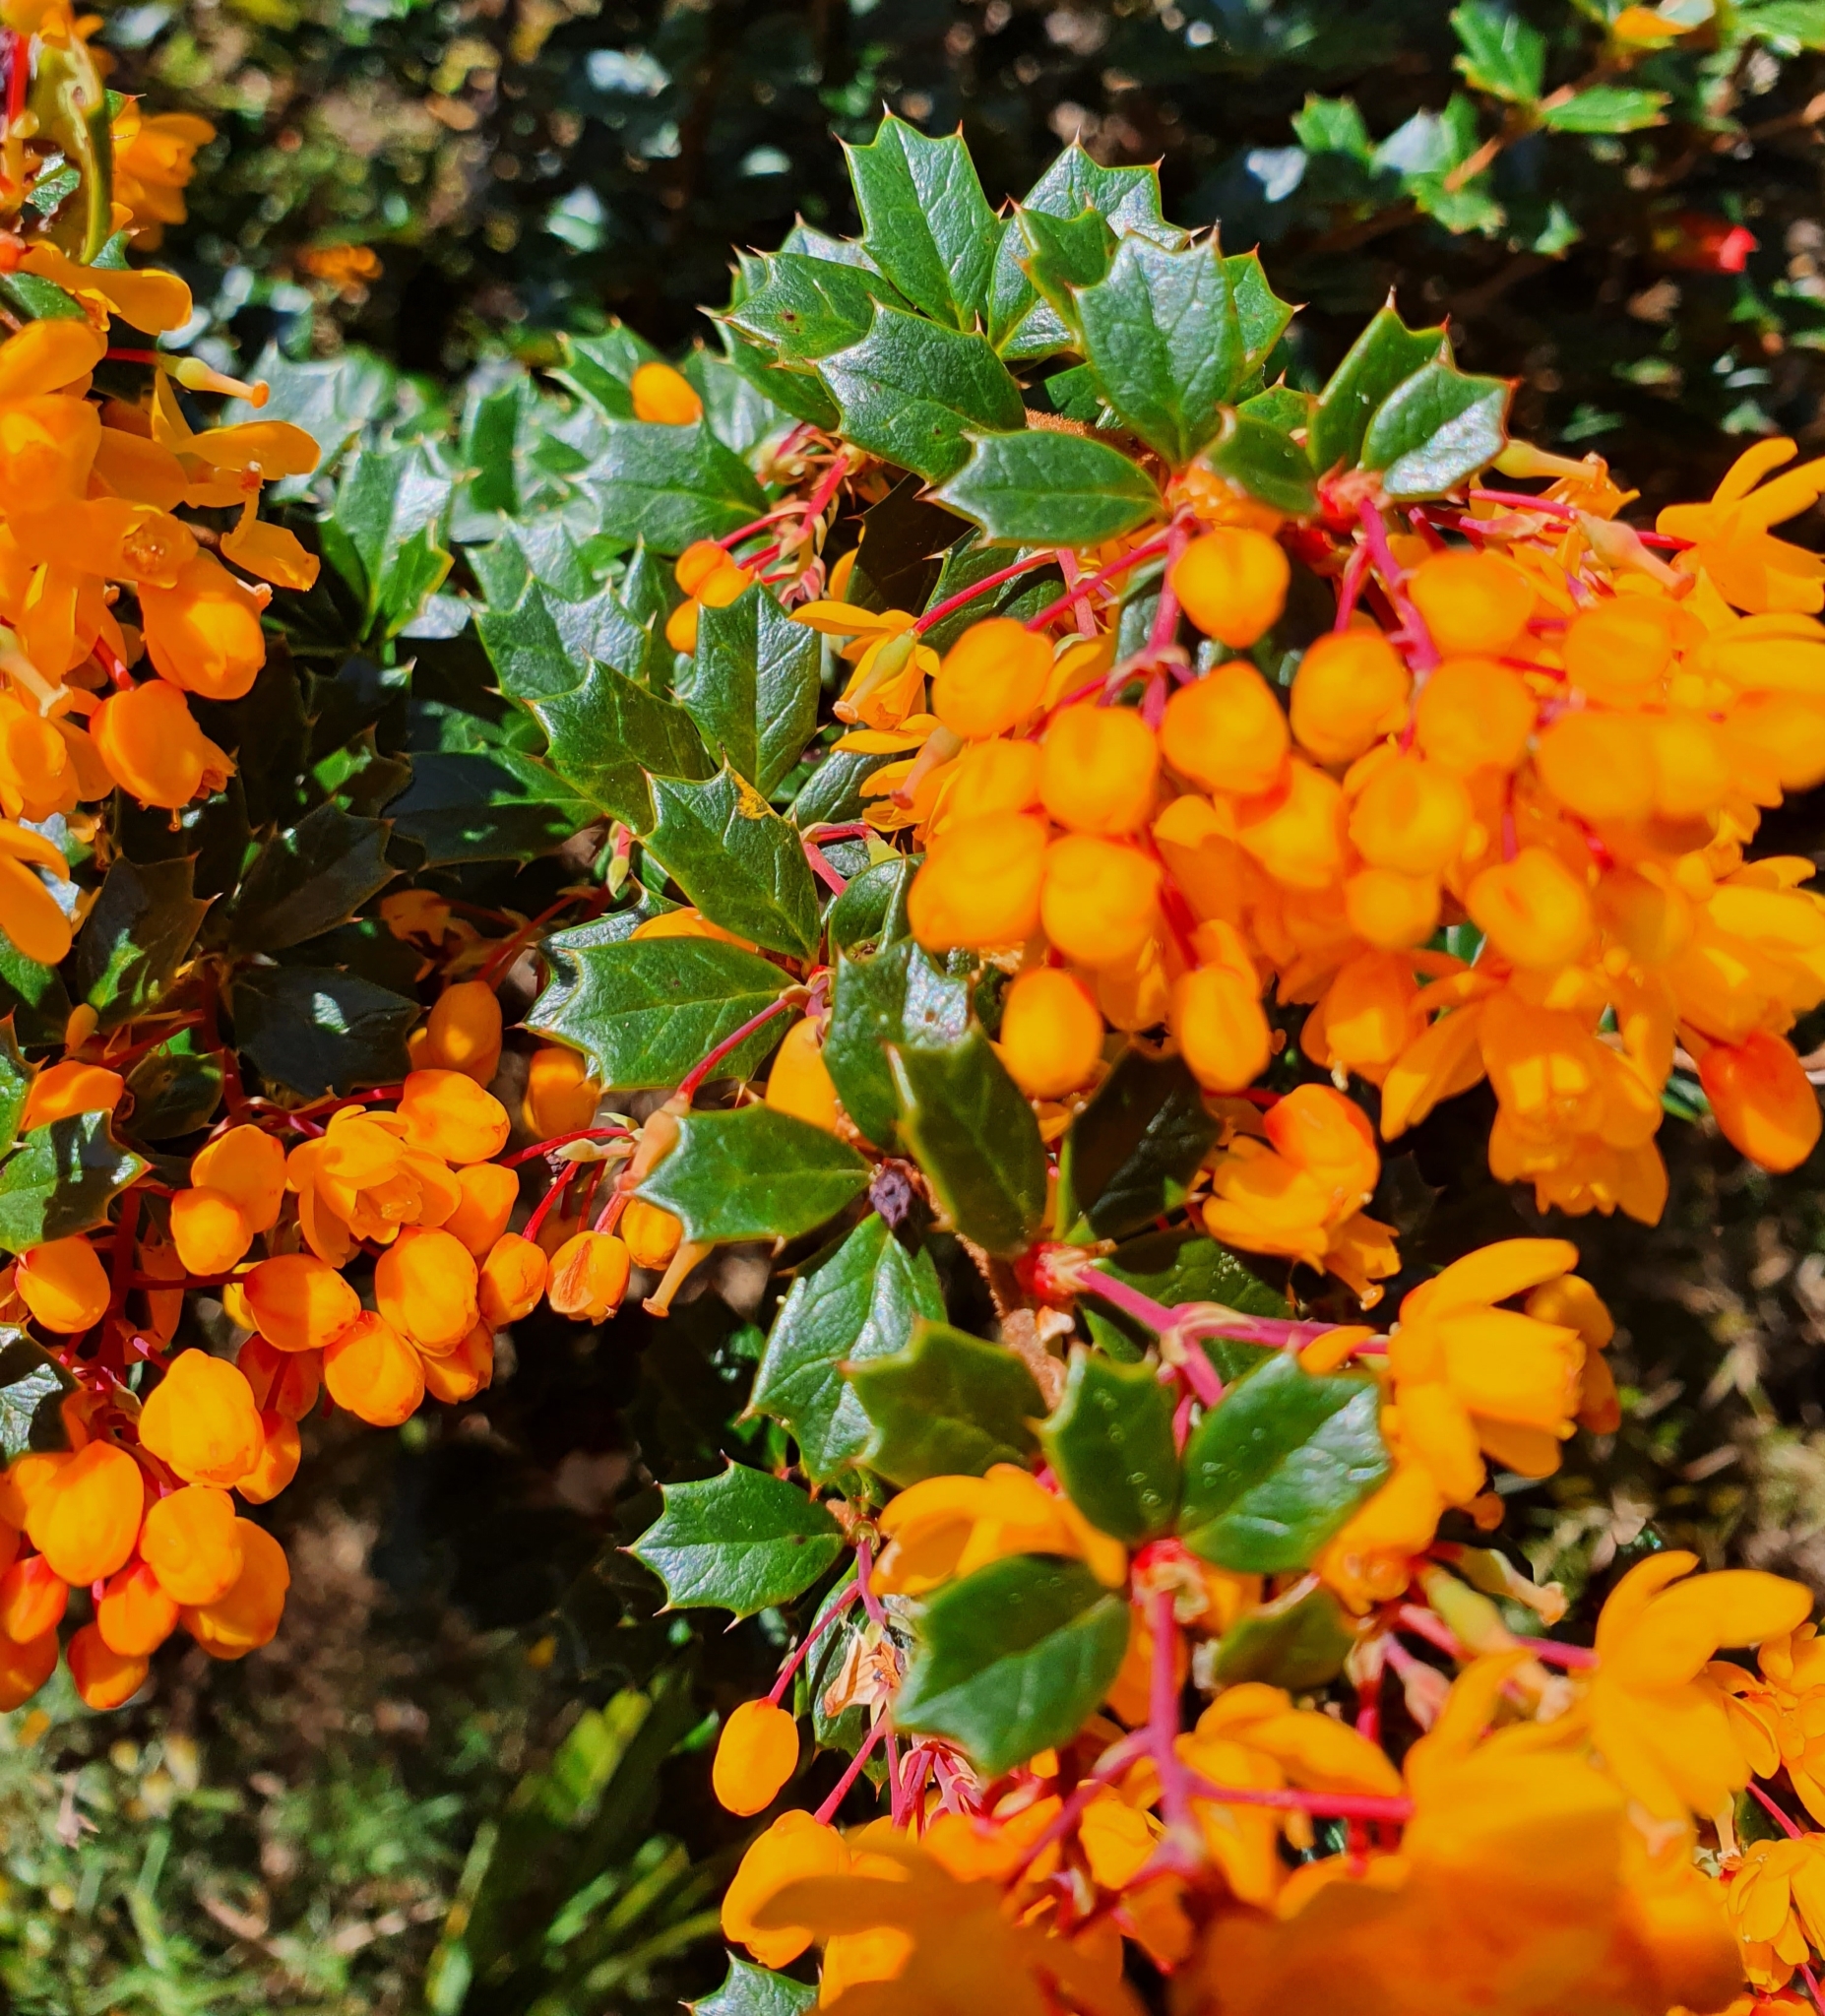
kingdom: Plantae
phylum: Tracheophyta
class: Magnoliopsida
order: Ranunculales
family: Berberidaceae
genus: Berberis
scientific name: Berberis darwinii
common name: Darwin's barberry
